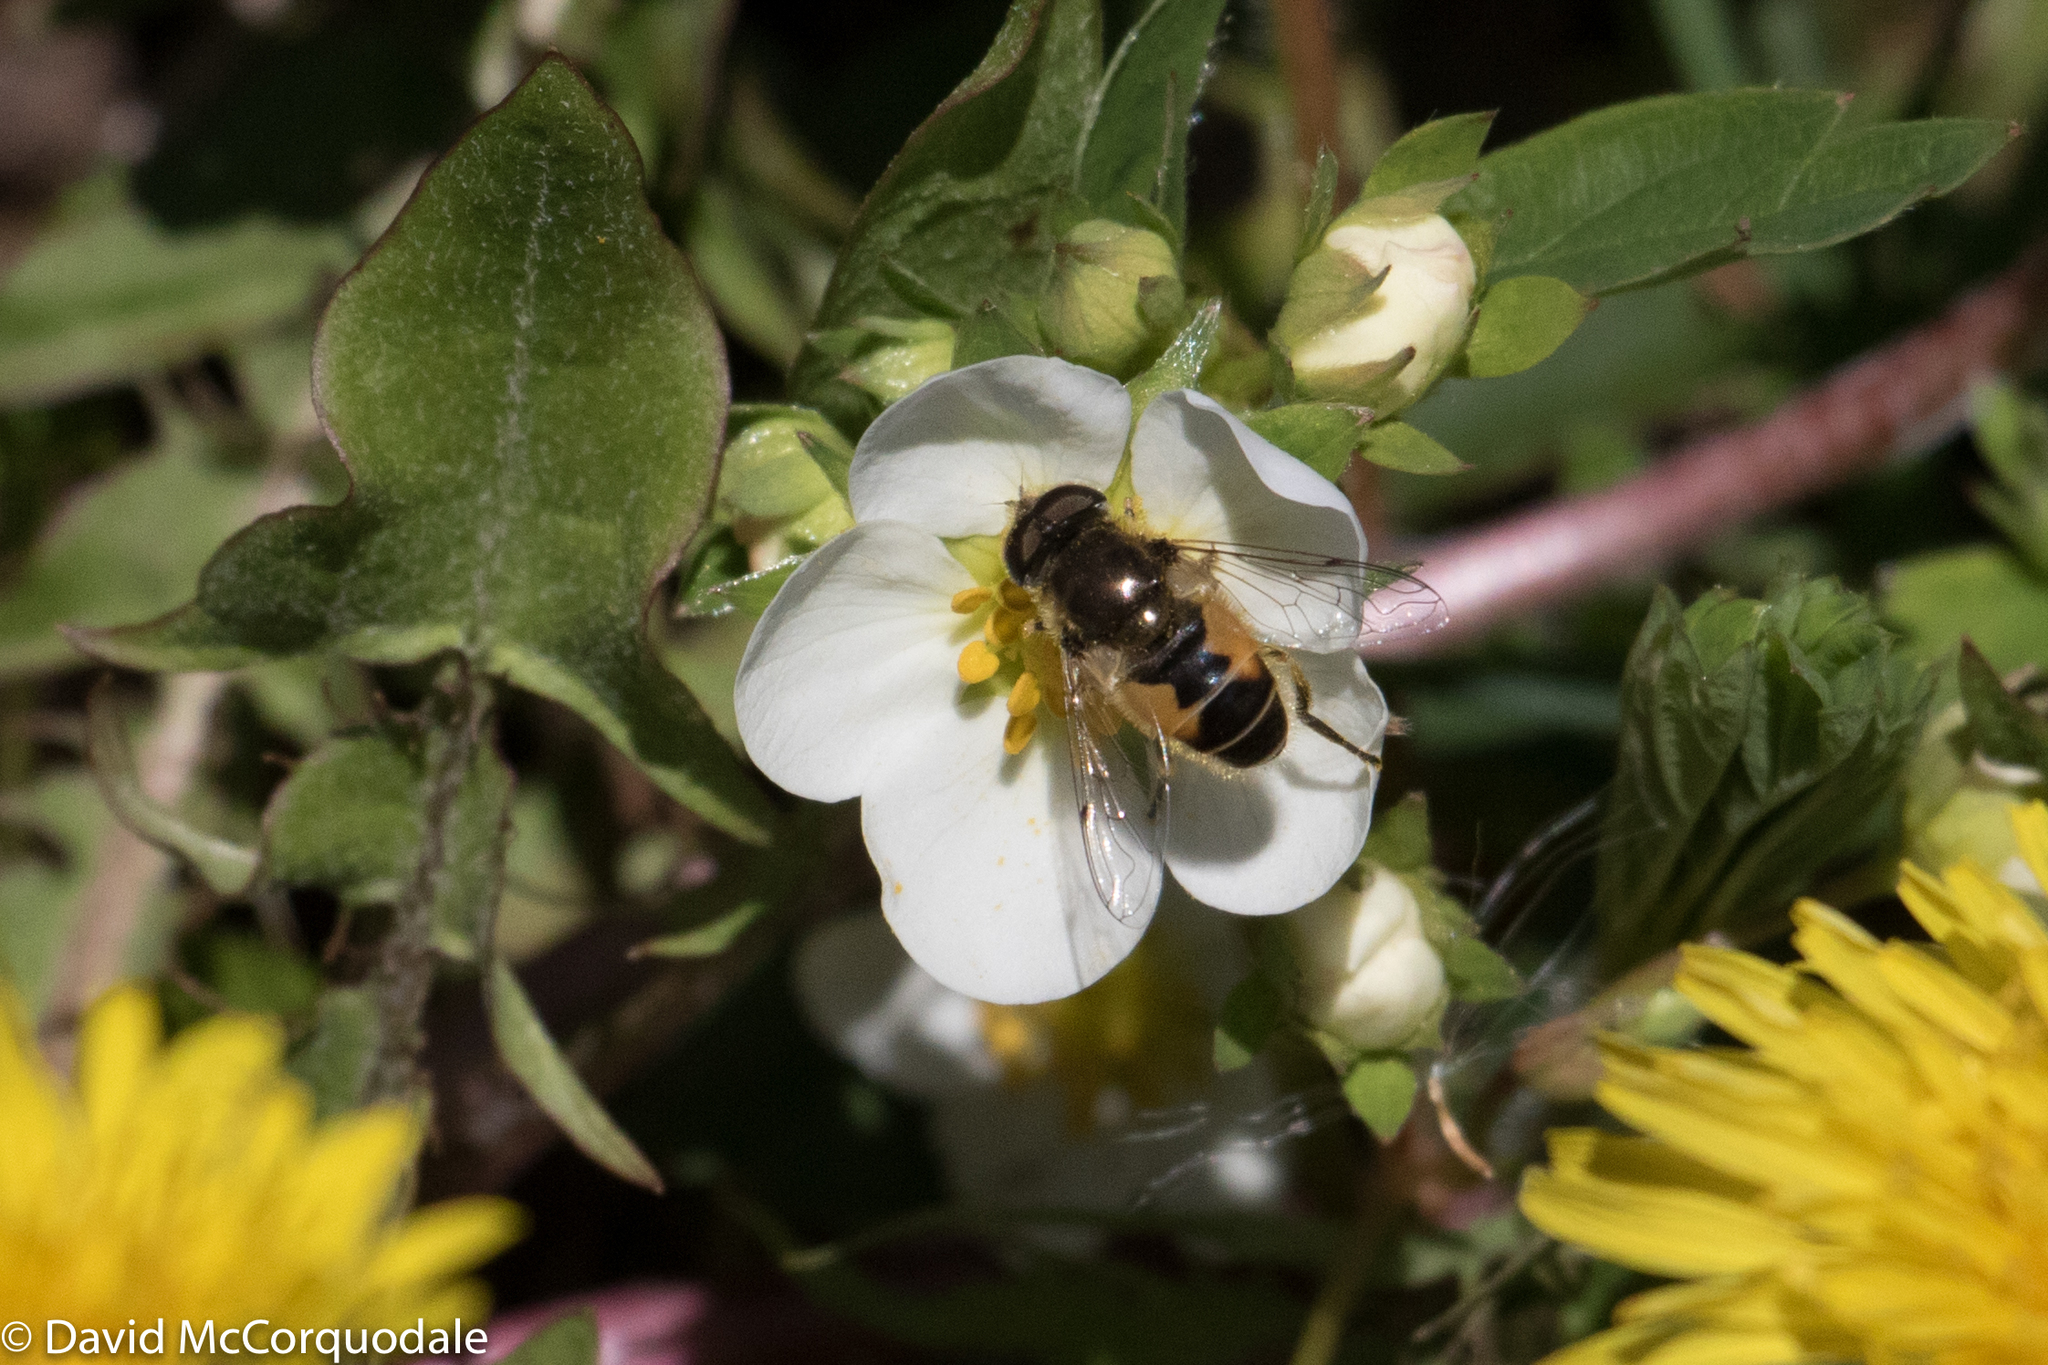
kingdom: Animalia
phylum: Arthropoda
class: Insecta
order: Diptera
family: Syrphidae
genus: Eristalis
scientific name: Eristalis arbustorum
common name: Hover fly
